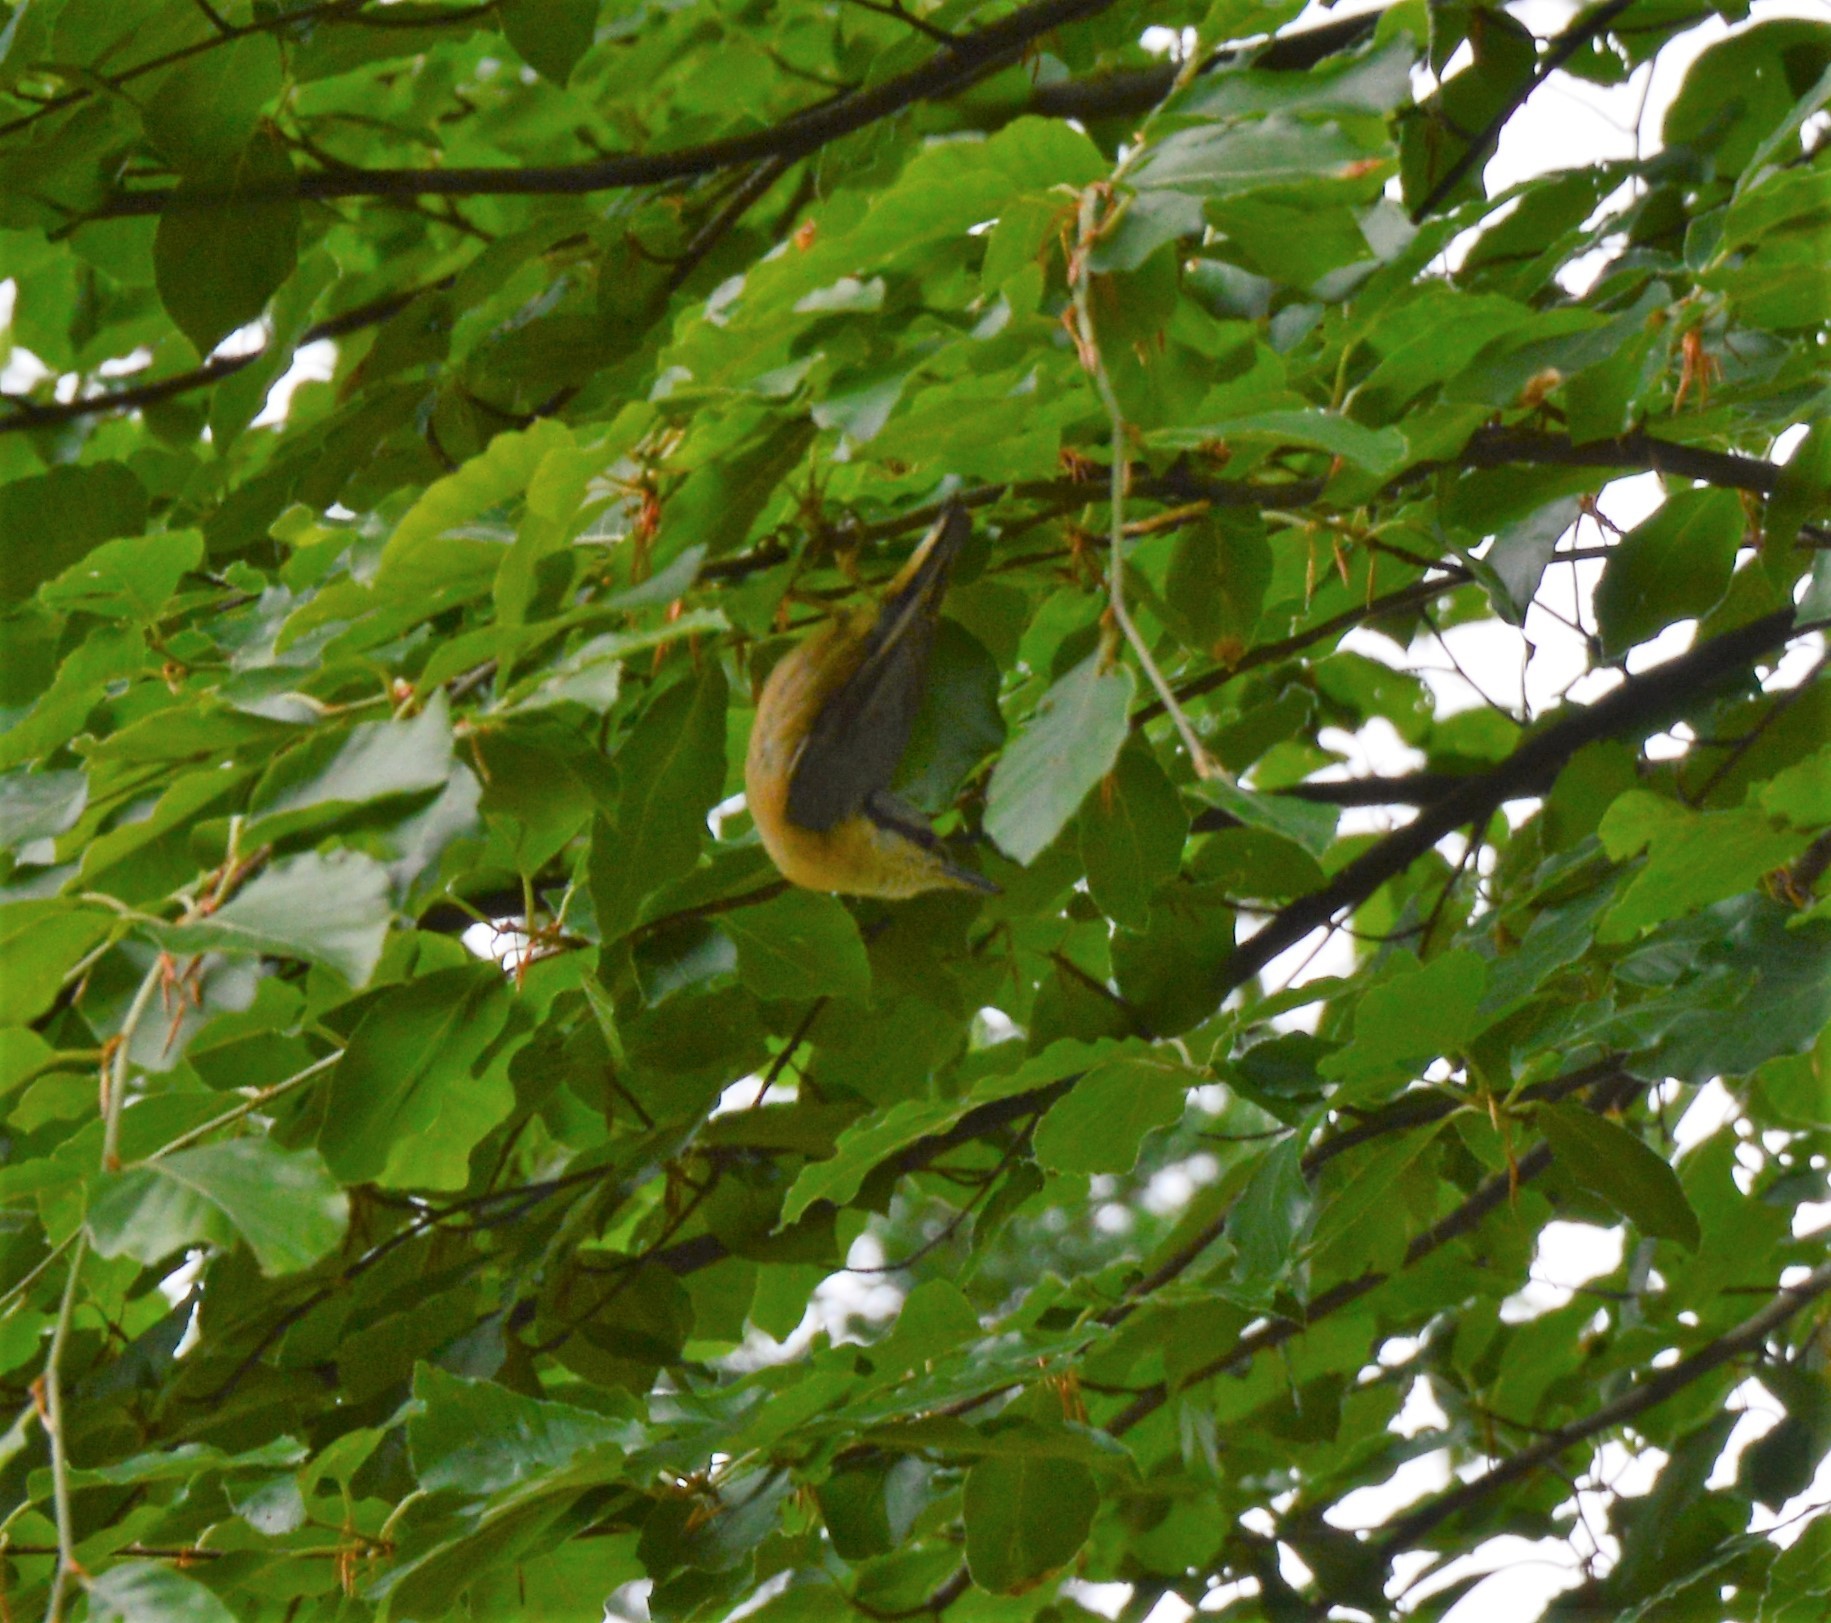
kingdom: Animalia
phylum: Chordata
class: Aves
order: Passeriformes
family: Sittidae
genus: Sitta
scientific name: Sitta europaea
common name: Eurasian nuthatch
